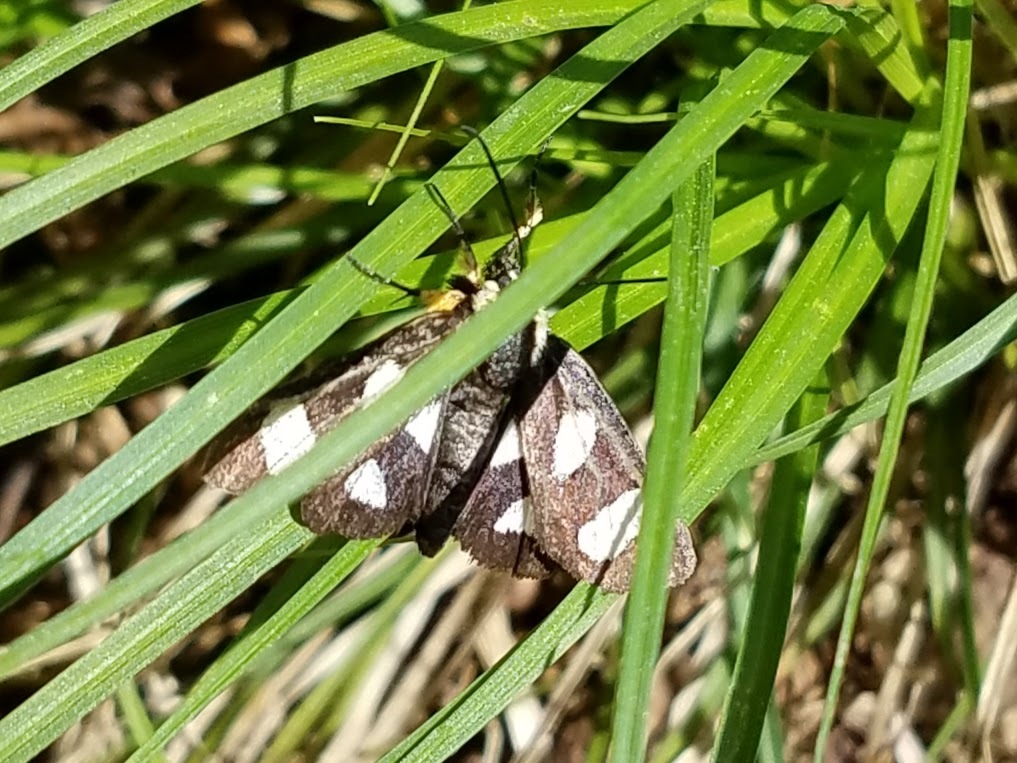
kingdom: Animalia
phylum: Arthropoda
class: Insecta
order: Lepidoptera
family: Noctuidae
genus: Alypia
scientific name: Alypia octomaculata
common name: Eight-spotted forester
